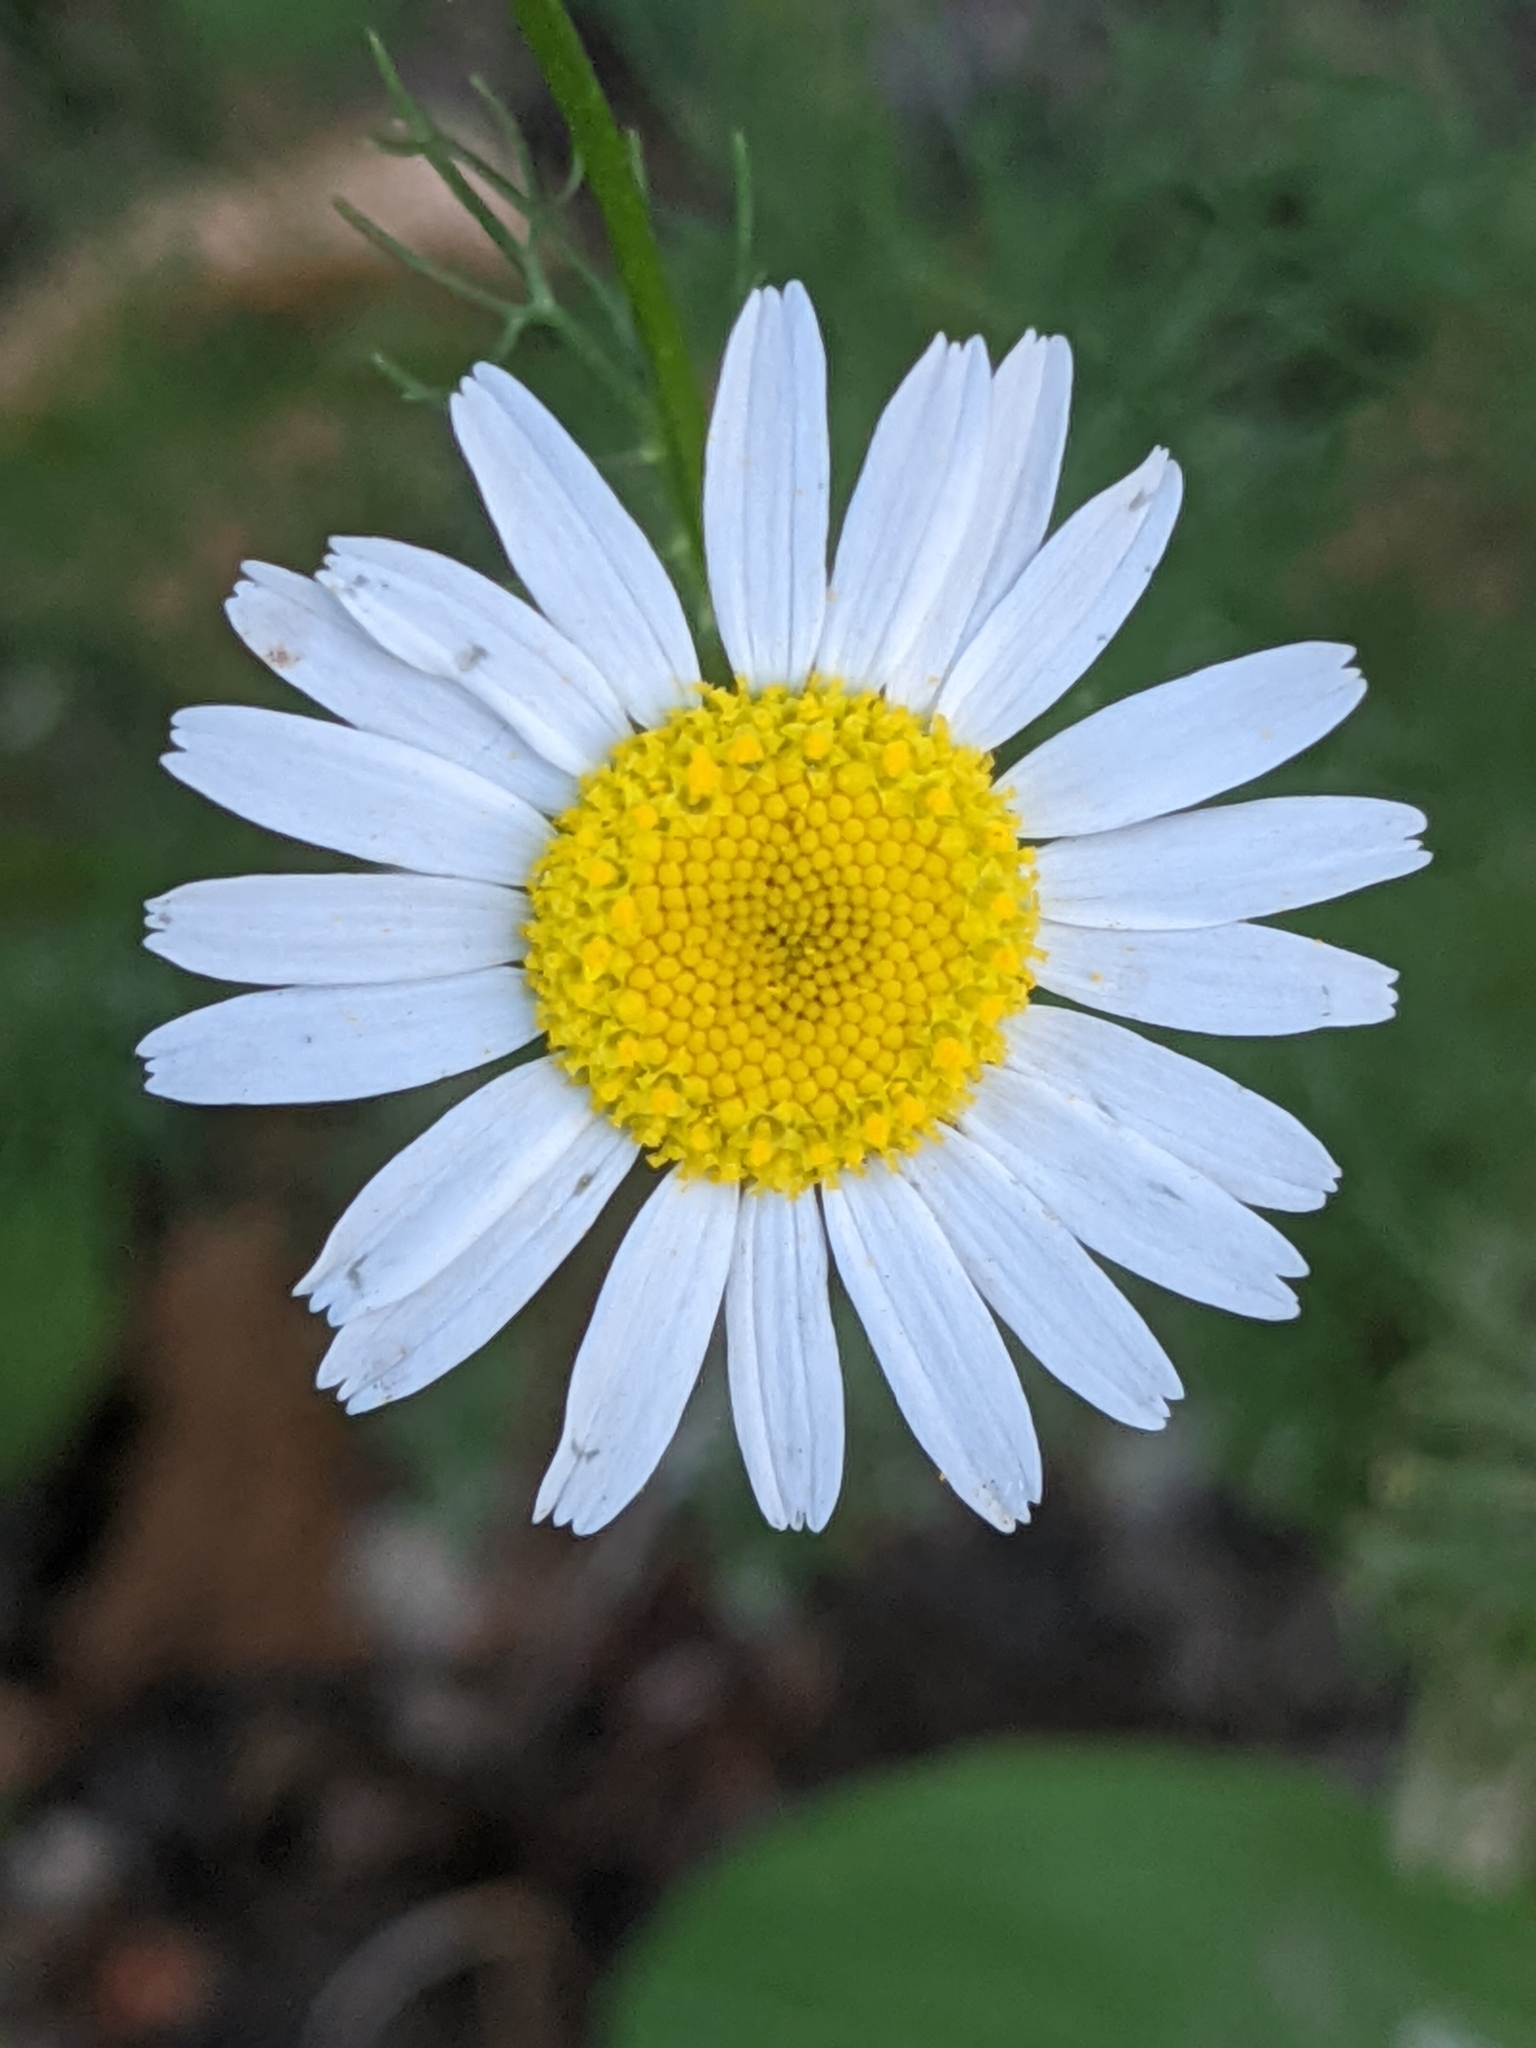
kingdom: Plantae
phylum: Tracheophyta
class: Magnoliopsida
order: Asterales
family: Asteraceae
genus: Tripleurospermum
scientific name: Tripleurospermum inodorum
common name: Scentless mayweed
